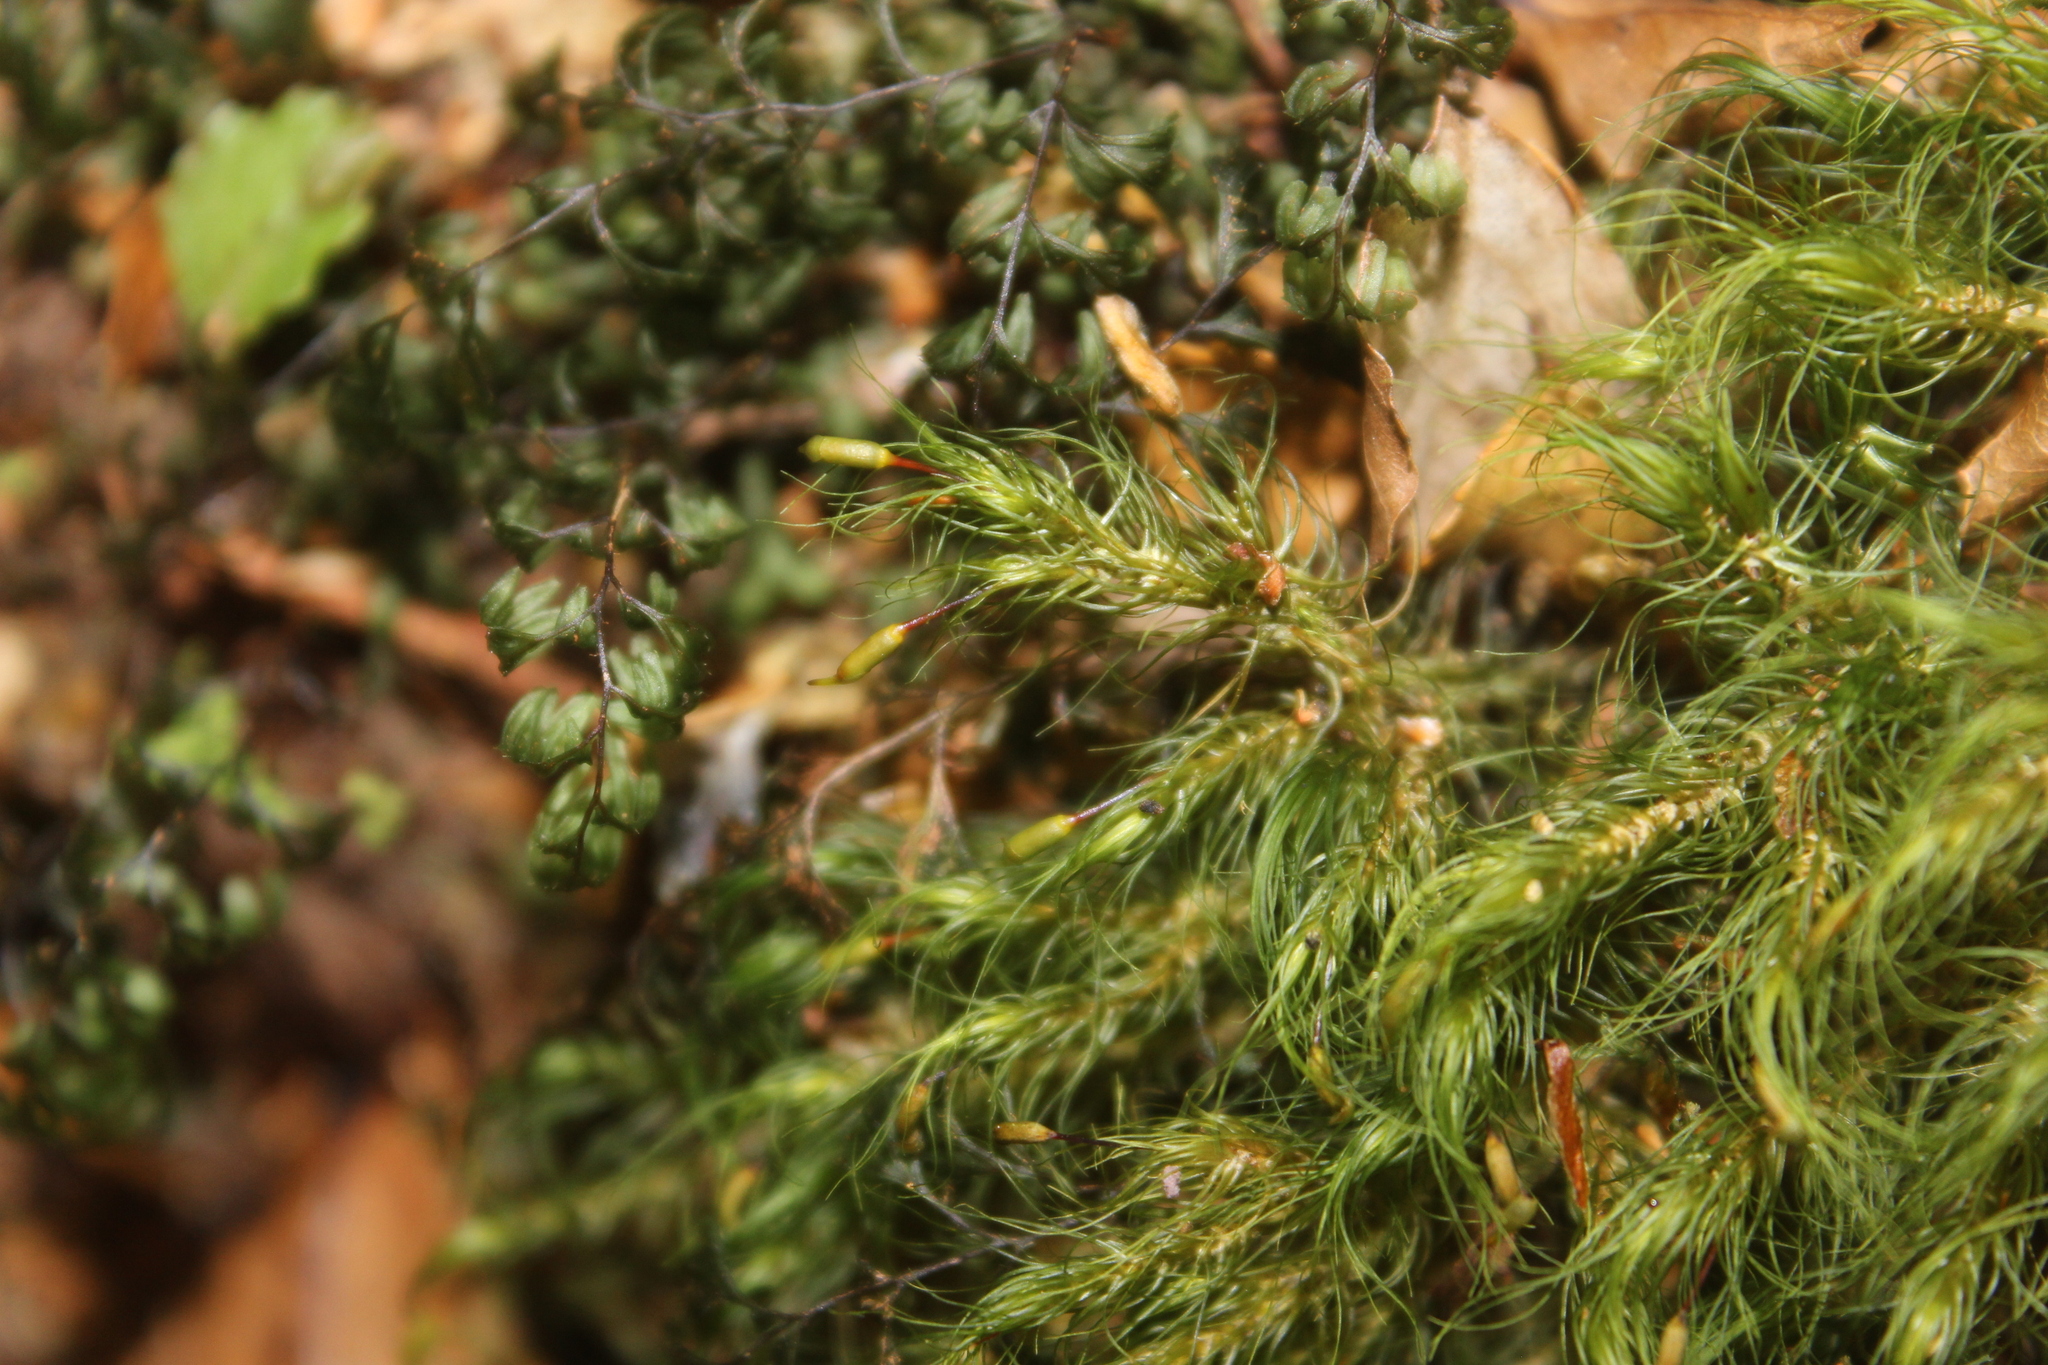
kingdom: Plantae
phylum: Bryophyta
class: Bryopsida
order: Rhizogoniales
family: Calomniaceae
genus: Cryptopodium
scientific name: Cryptopodium bartramioides
